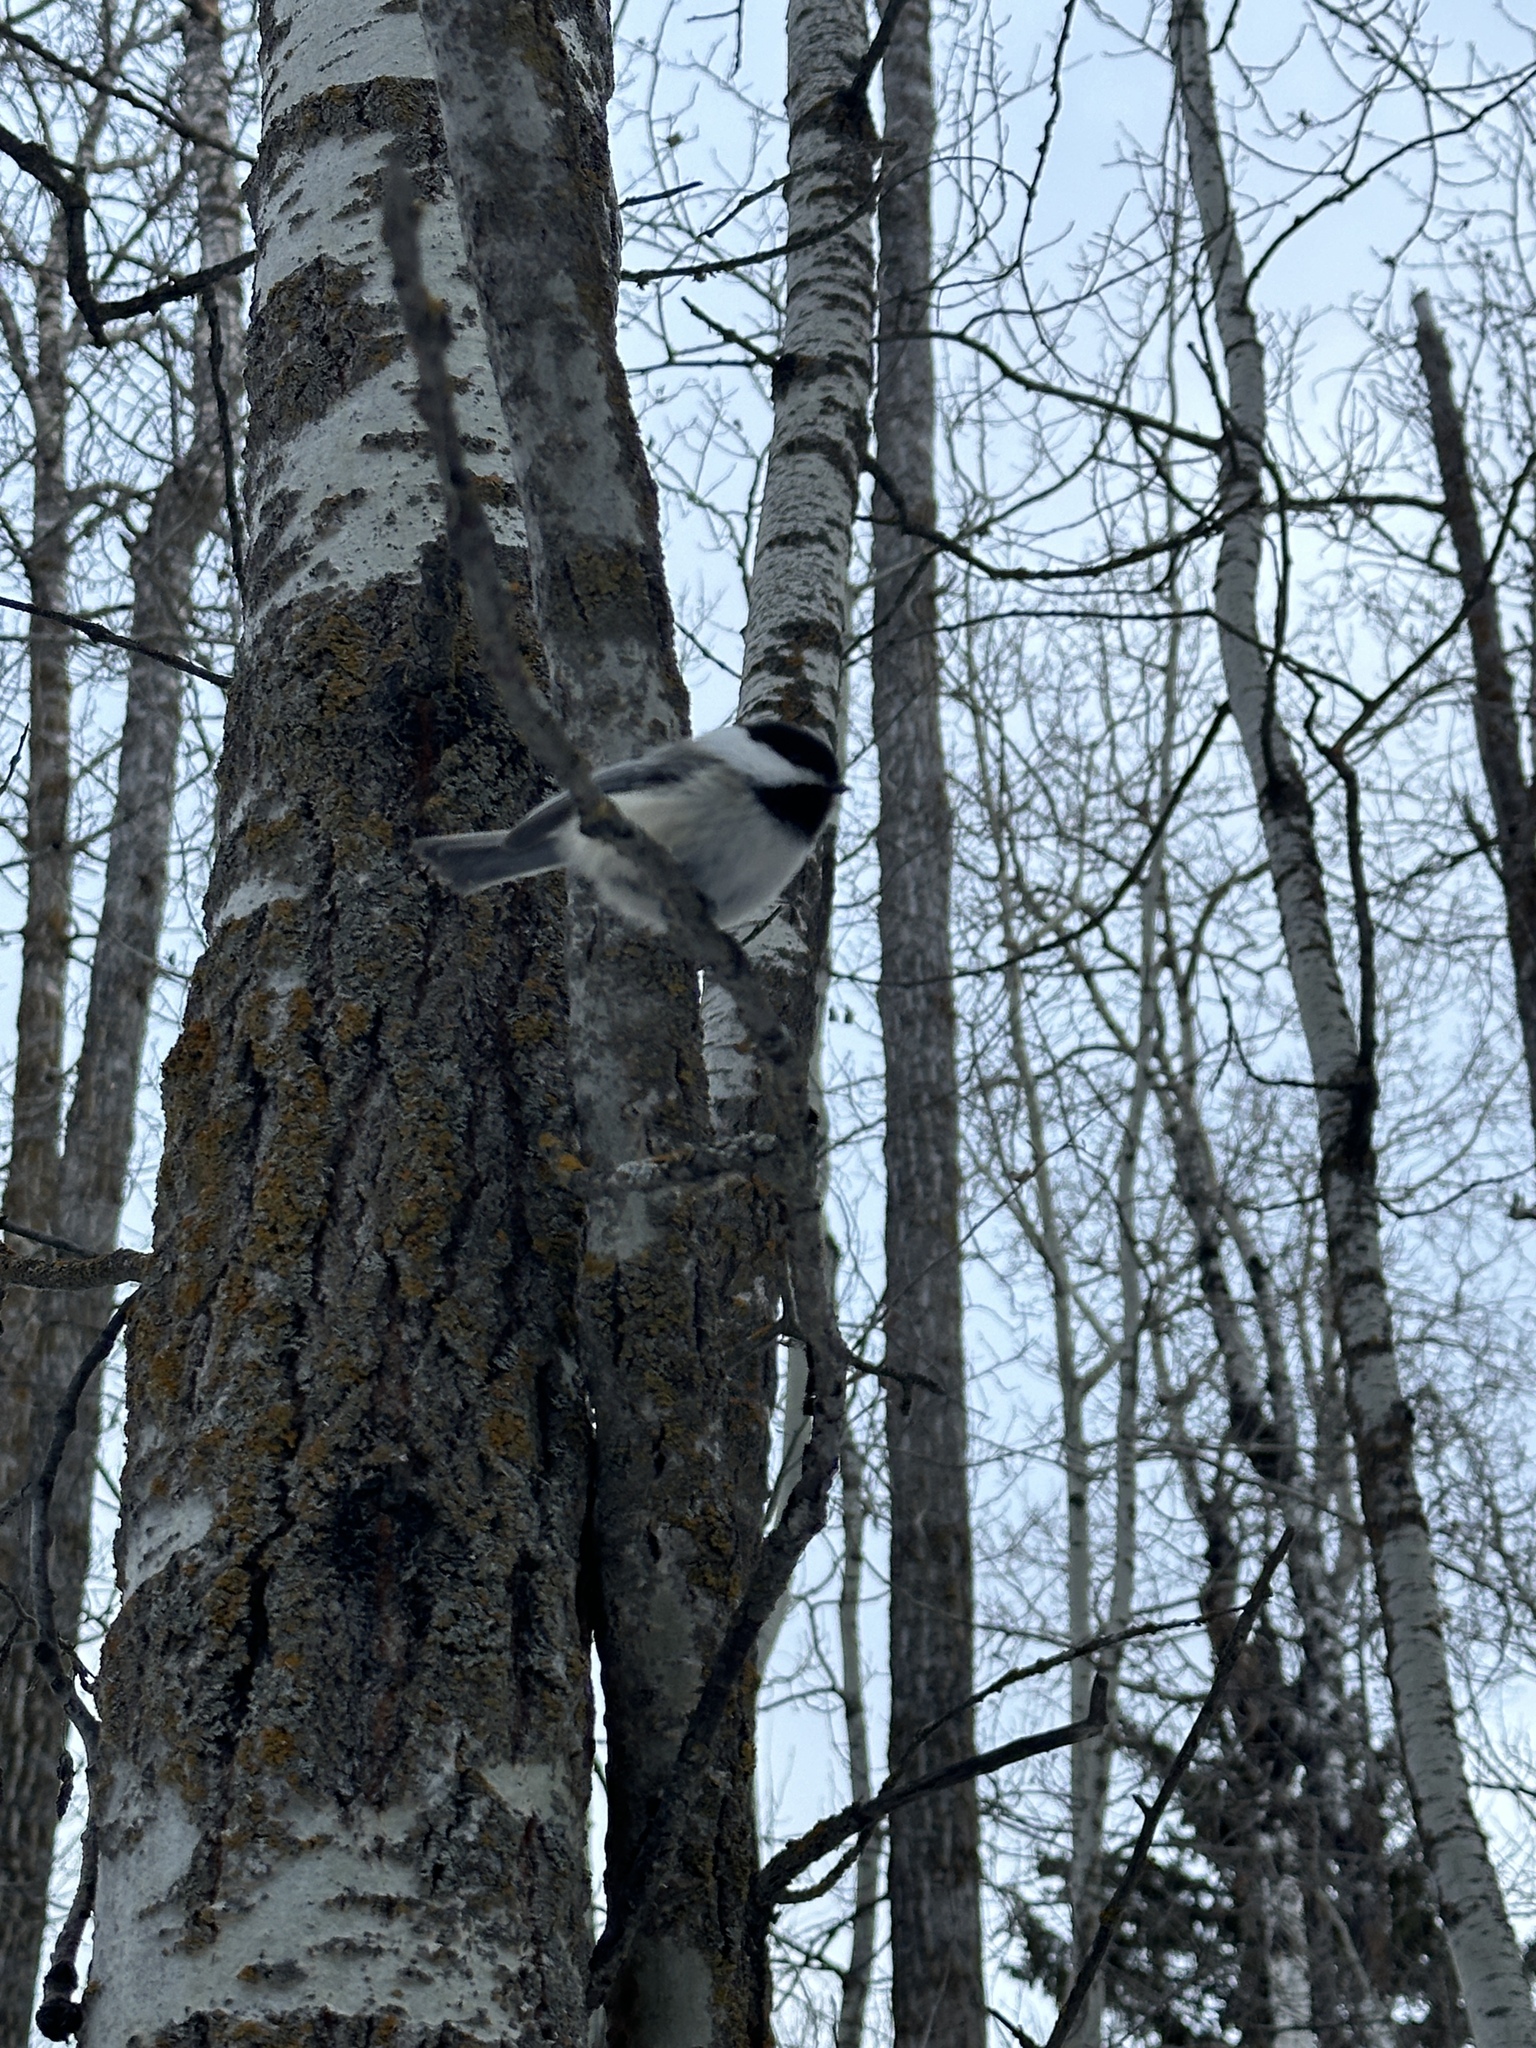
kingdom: Animalia
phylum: Chordata
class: Aves
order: Passeriformes
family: Paridae
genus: Poecile
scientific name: Poecile atricapillus
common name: Black-capped chickadee
